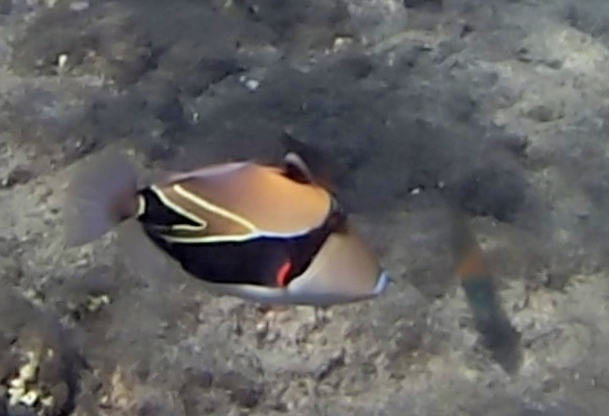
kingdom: Animalia
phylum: Chordata
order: Tetraodontiformes
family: Balistidae
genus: Rhinecanthus
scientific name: Rhinecanthus rectangulus
